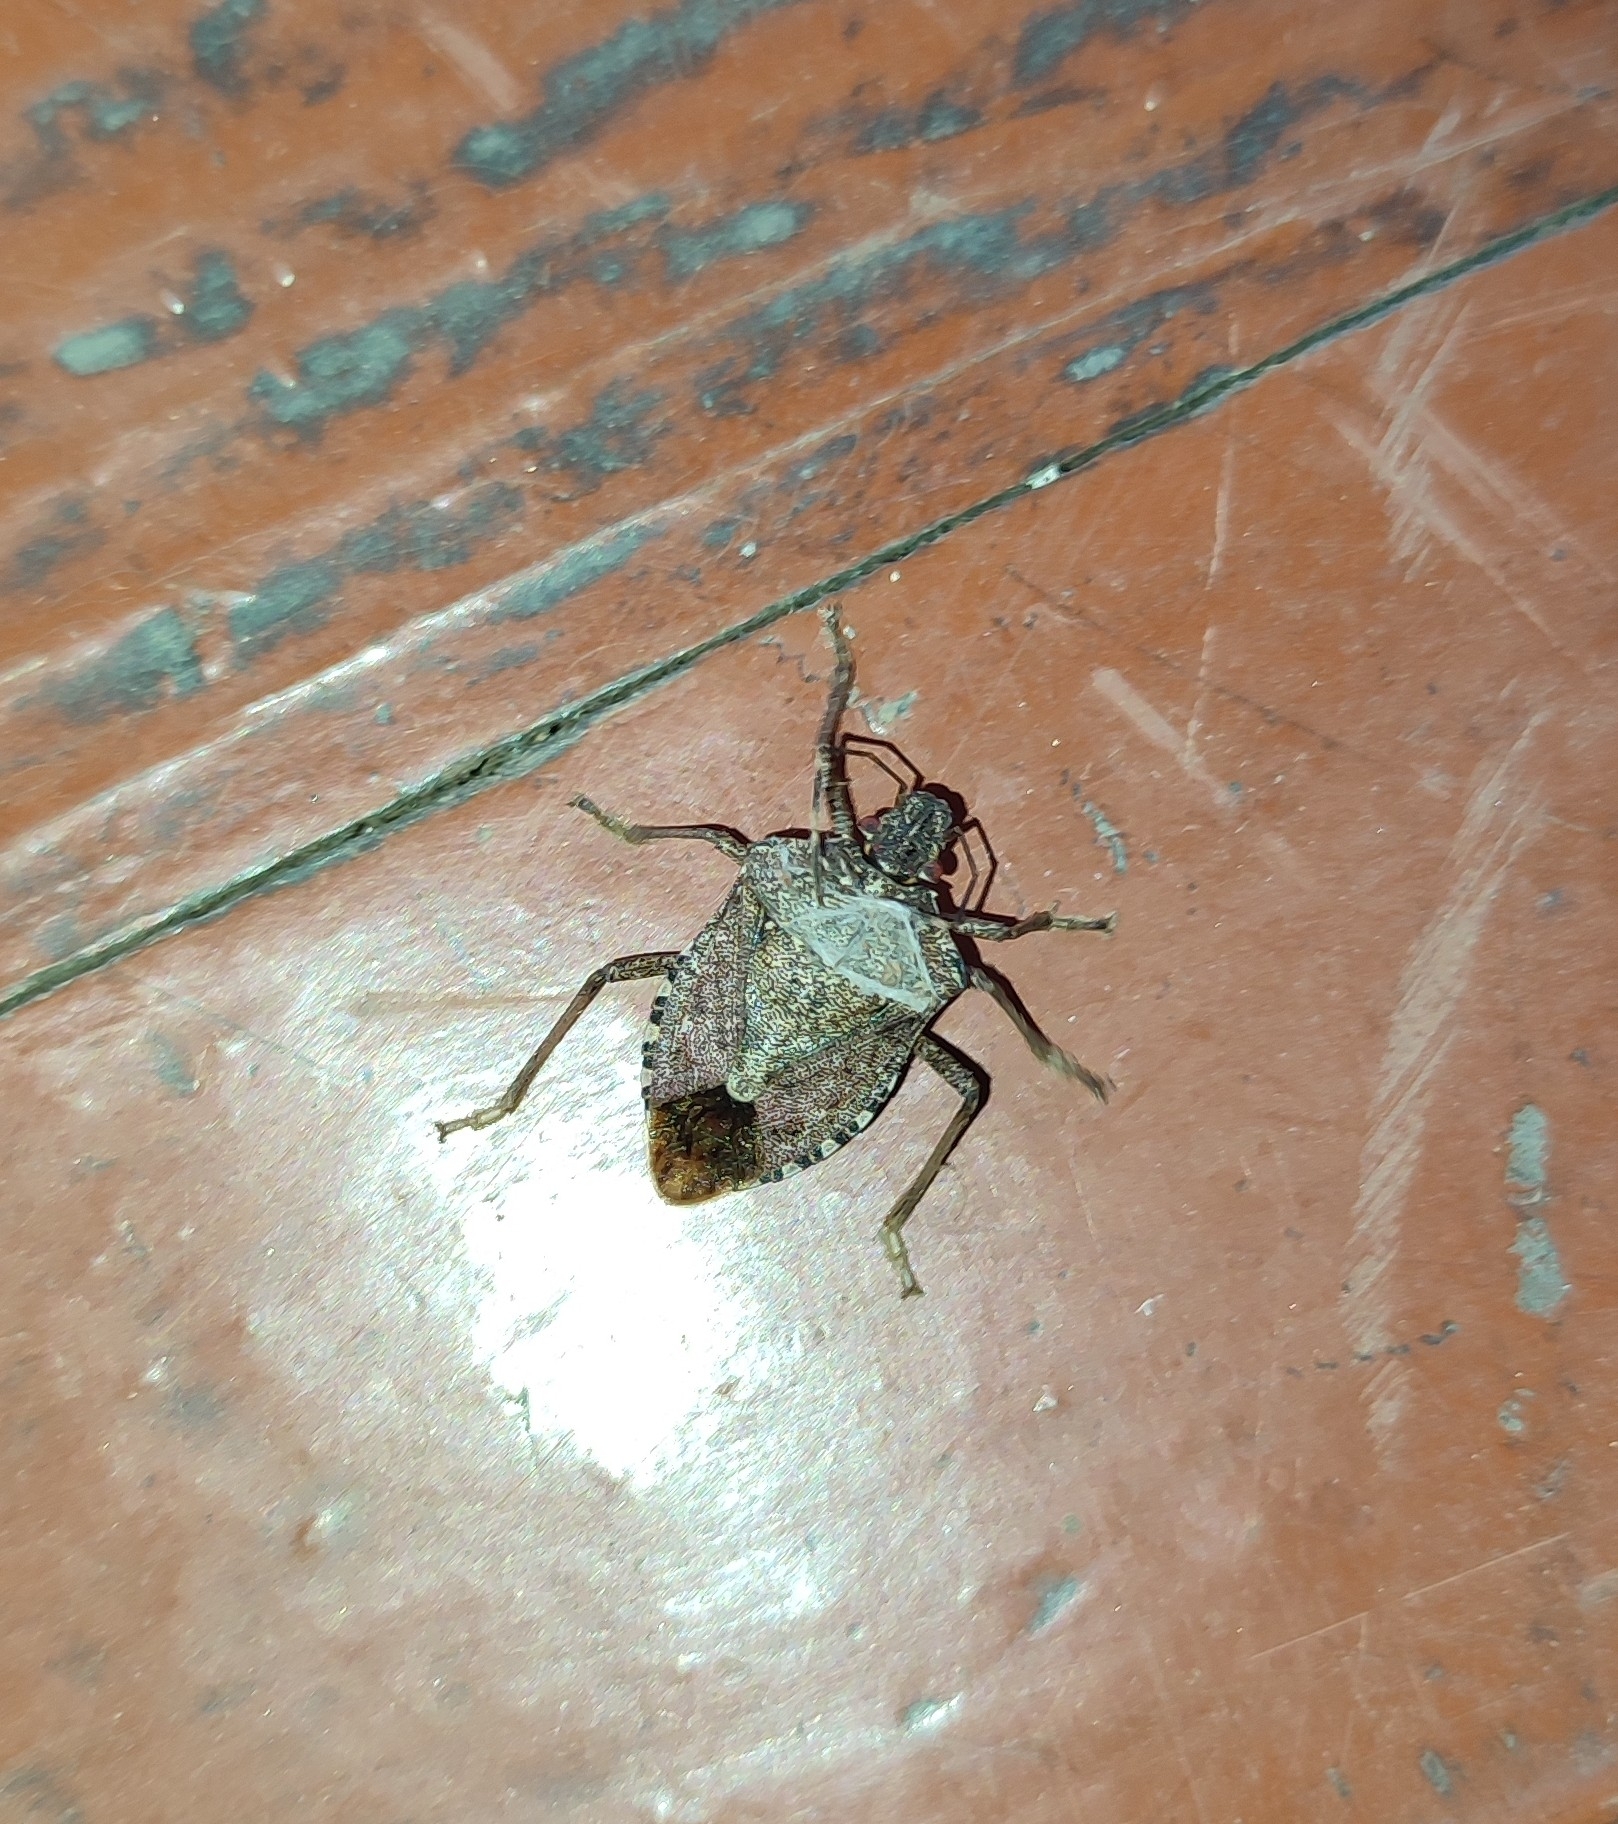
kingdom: Animalia
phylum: Arthropoda
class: Insecta
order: Hemiptera
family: Pentatomidae
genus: Halyomorpha
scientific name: Halyomorpha halys
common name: Brown marmorated stink bug
